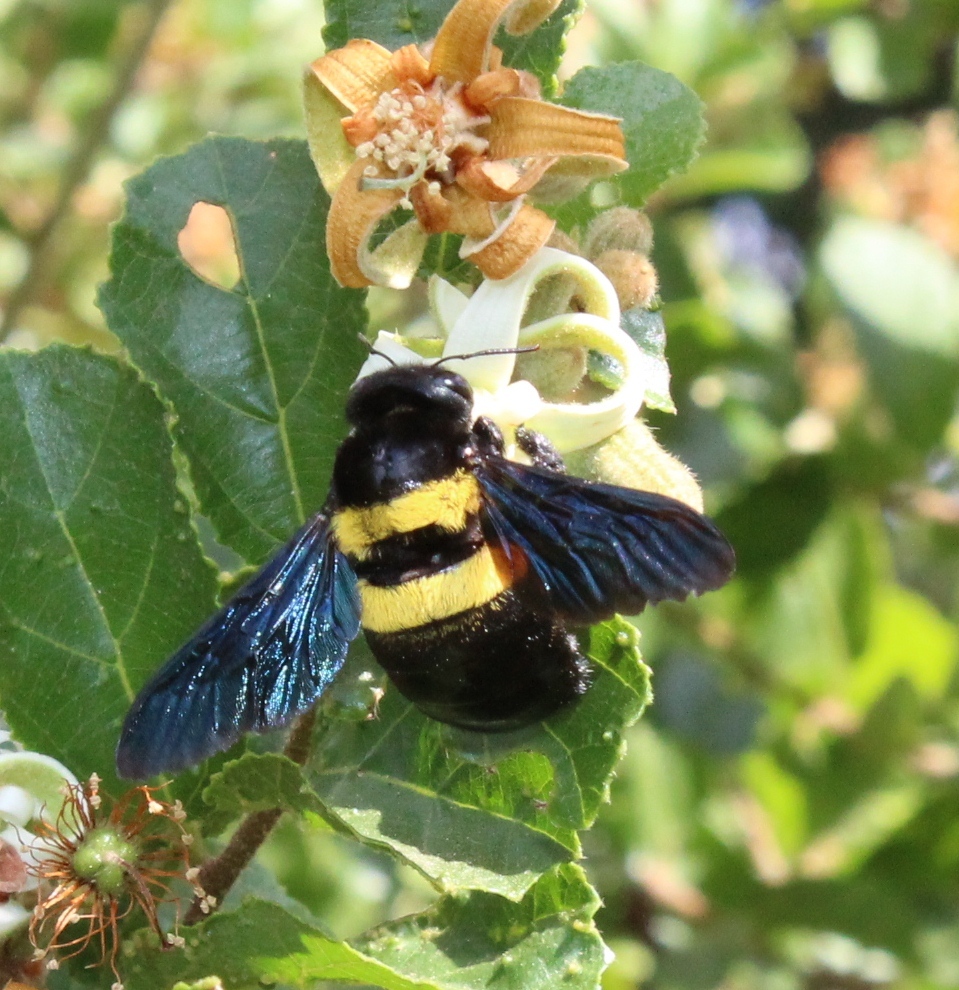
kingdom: Animalia
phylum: Arthropoda
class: Insecta
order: Hymenoptera
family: Apidae
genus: Xylocopa
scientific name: Xylocopa caffra
